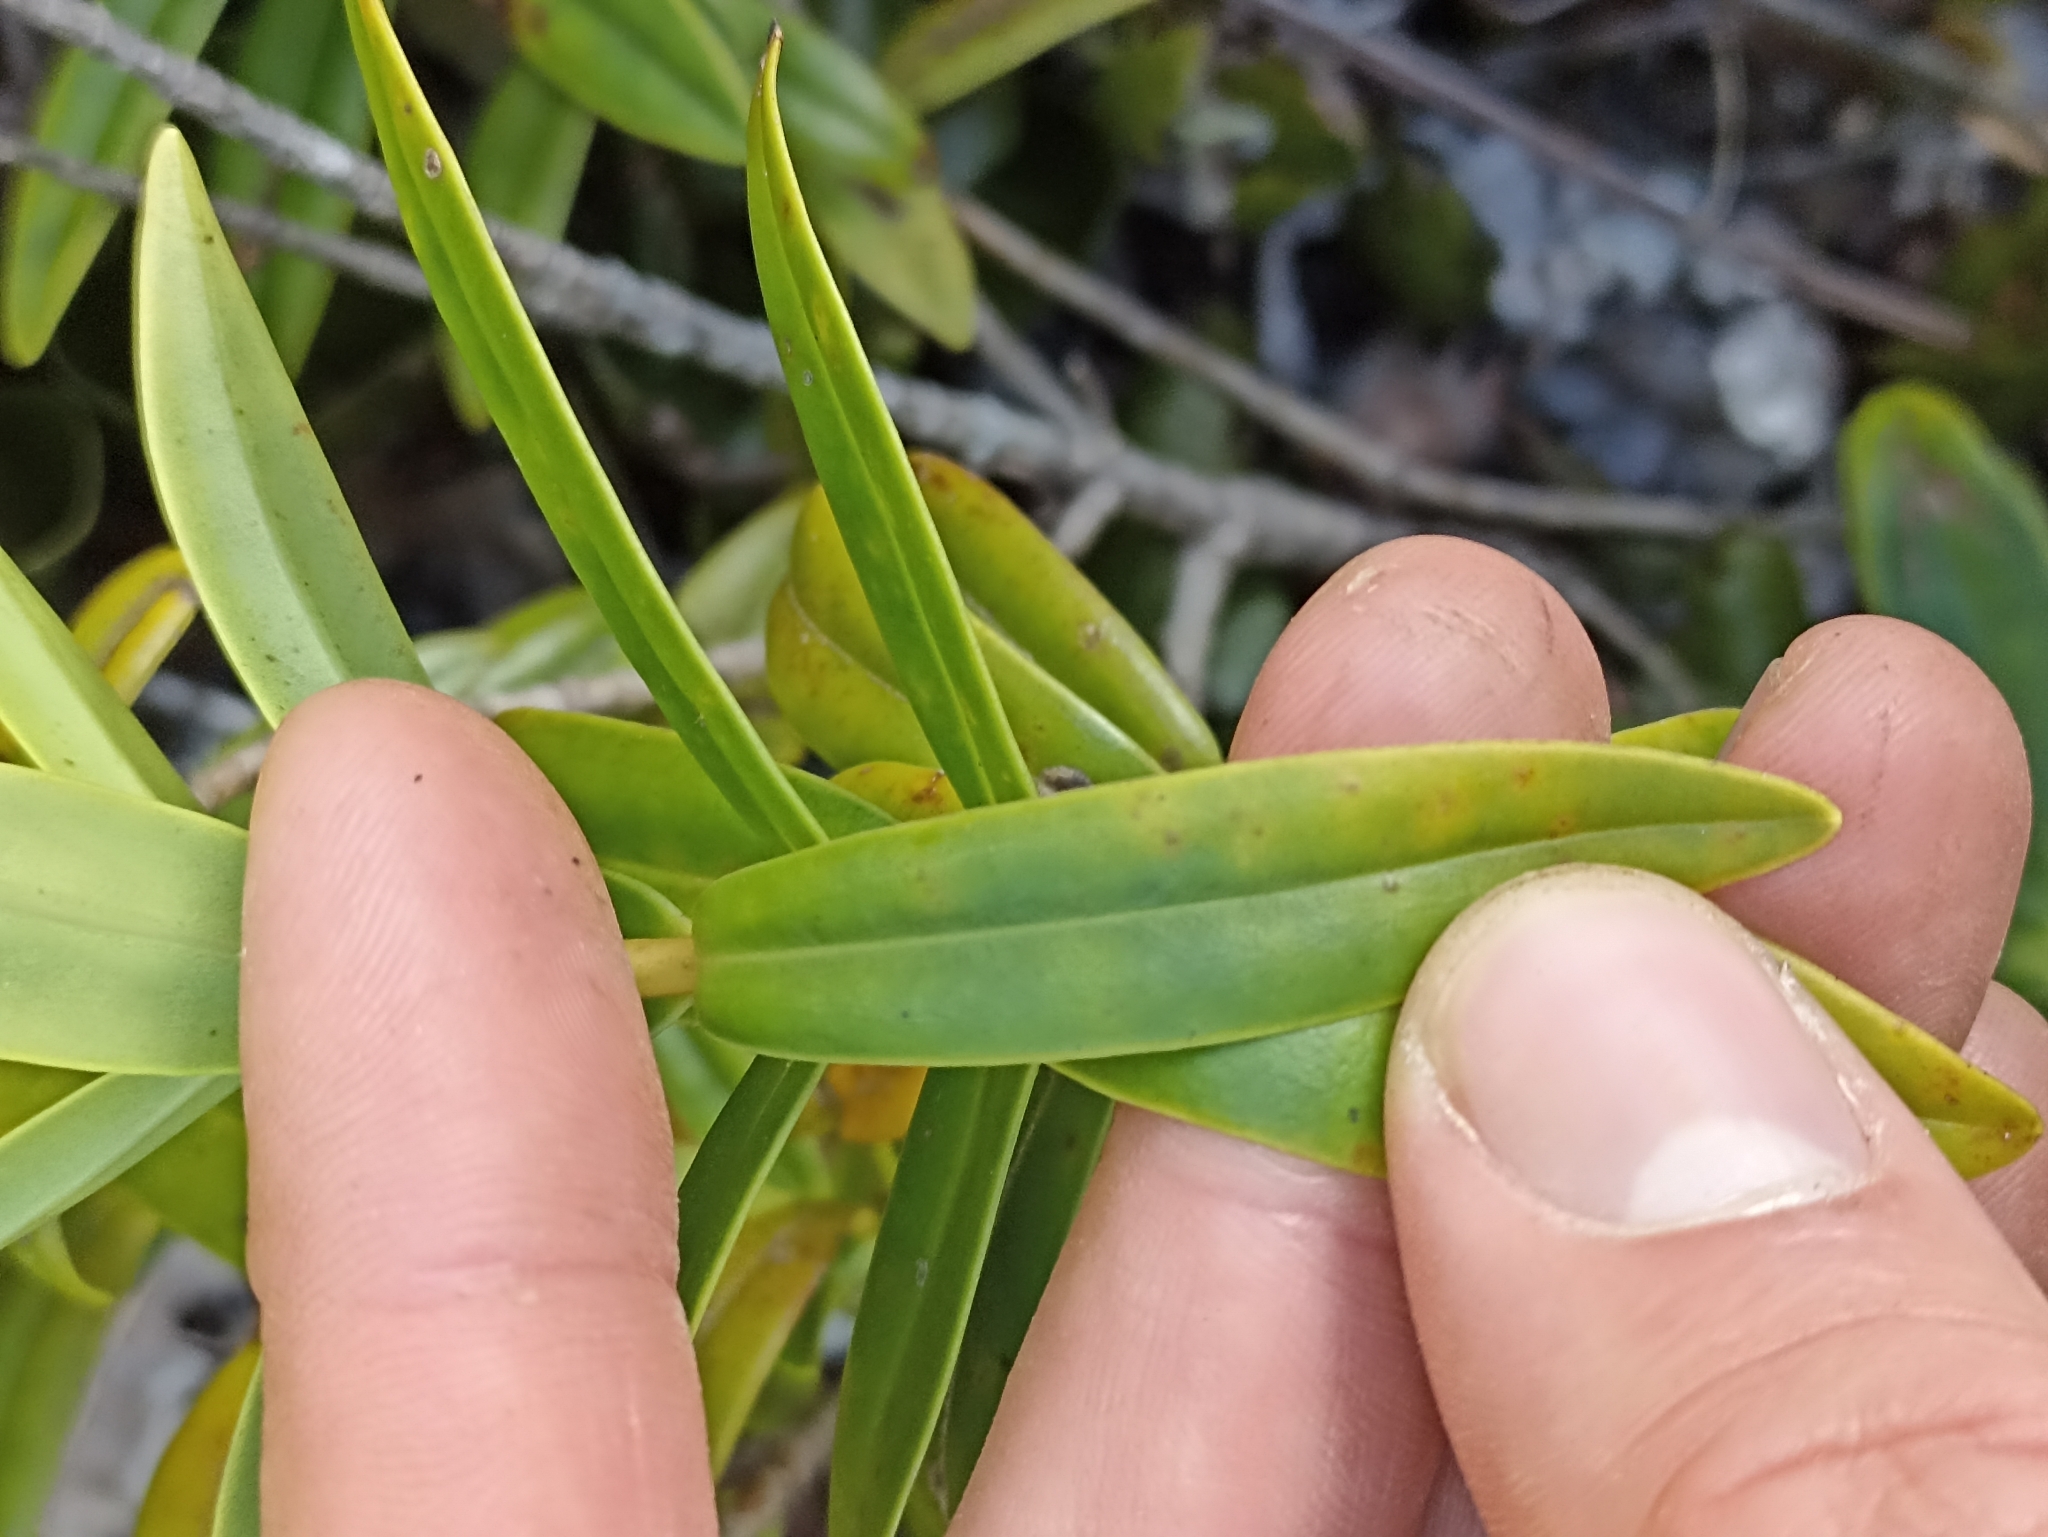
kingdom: Plantae
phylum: Tracheophyta
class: Magnoliopsida
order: Lamiales
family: Plantaginaceae
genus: Veronica
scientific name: Veronica macrocarpa
